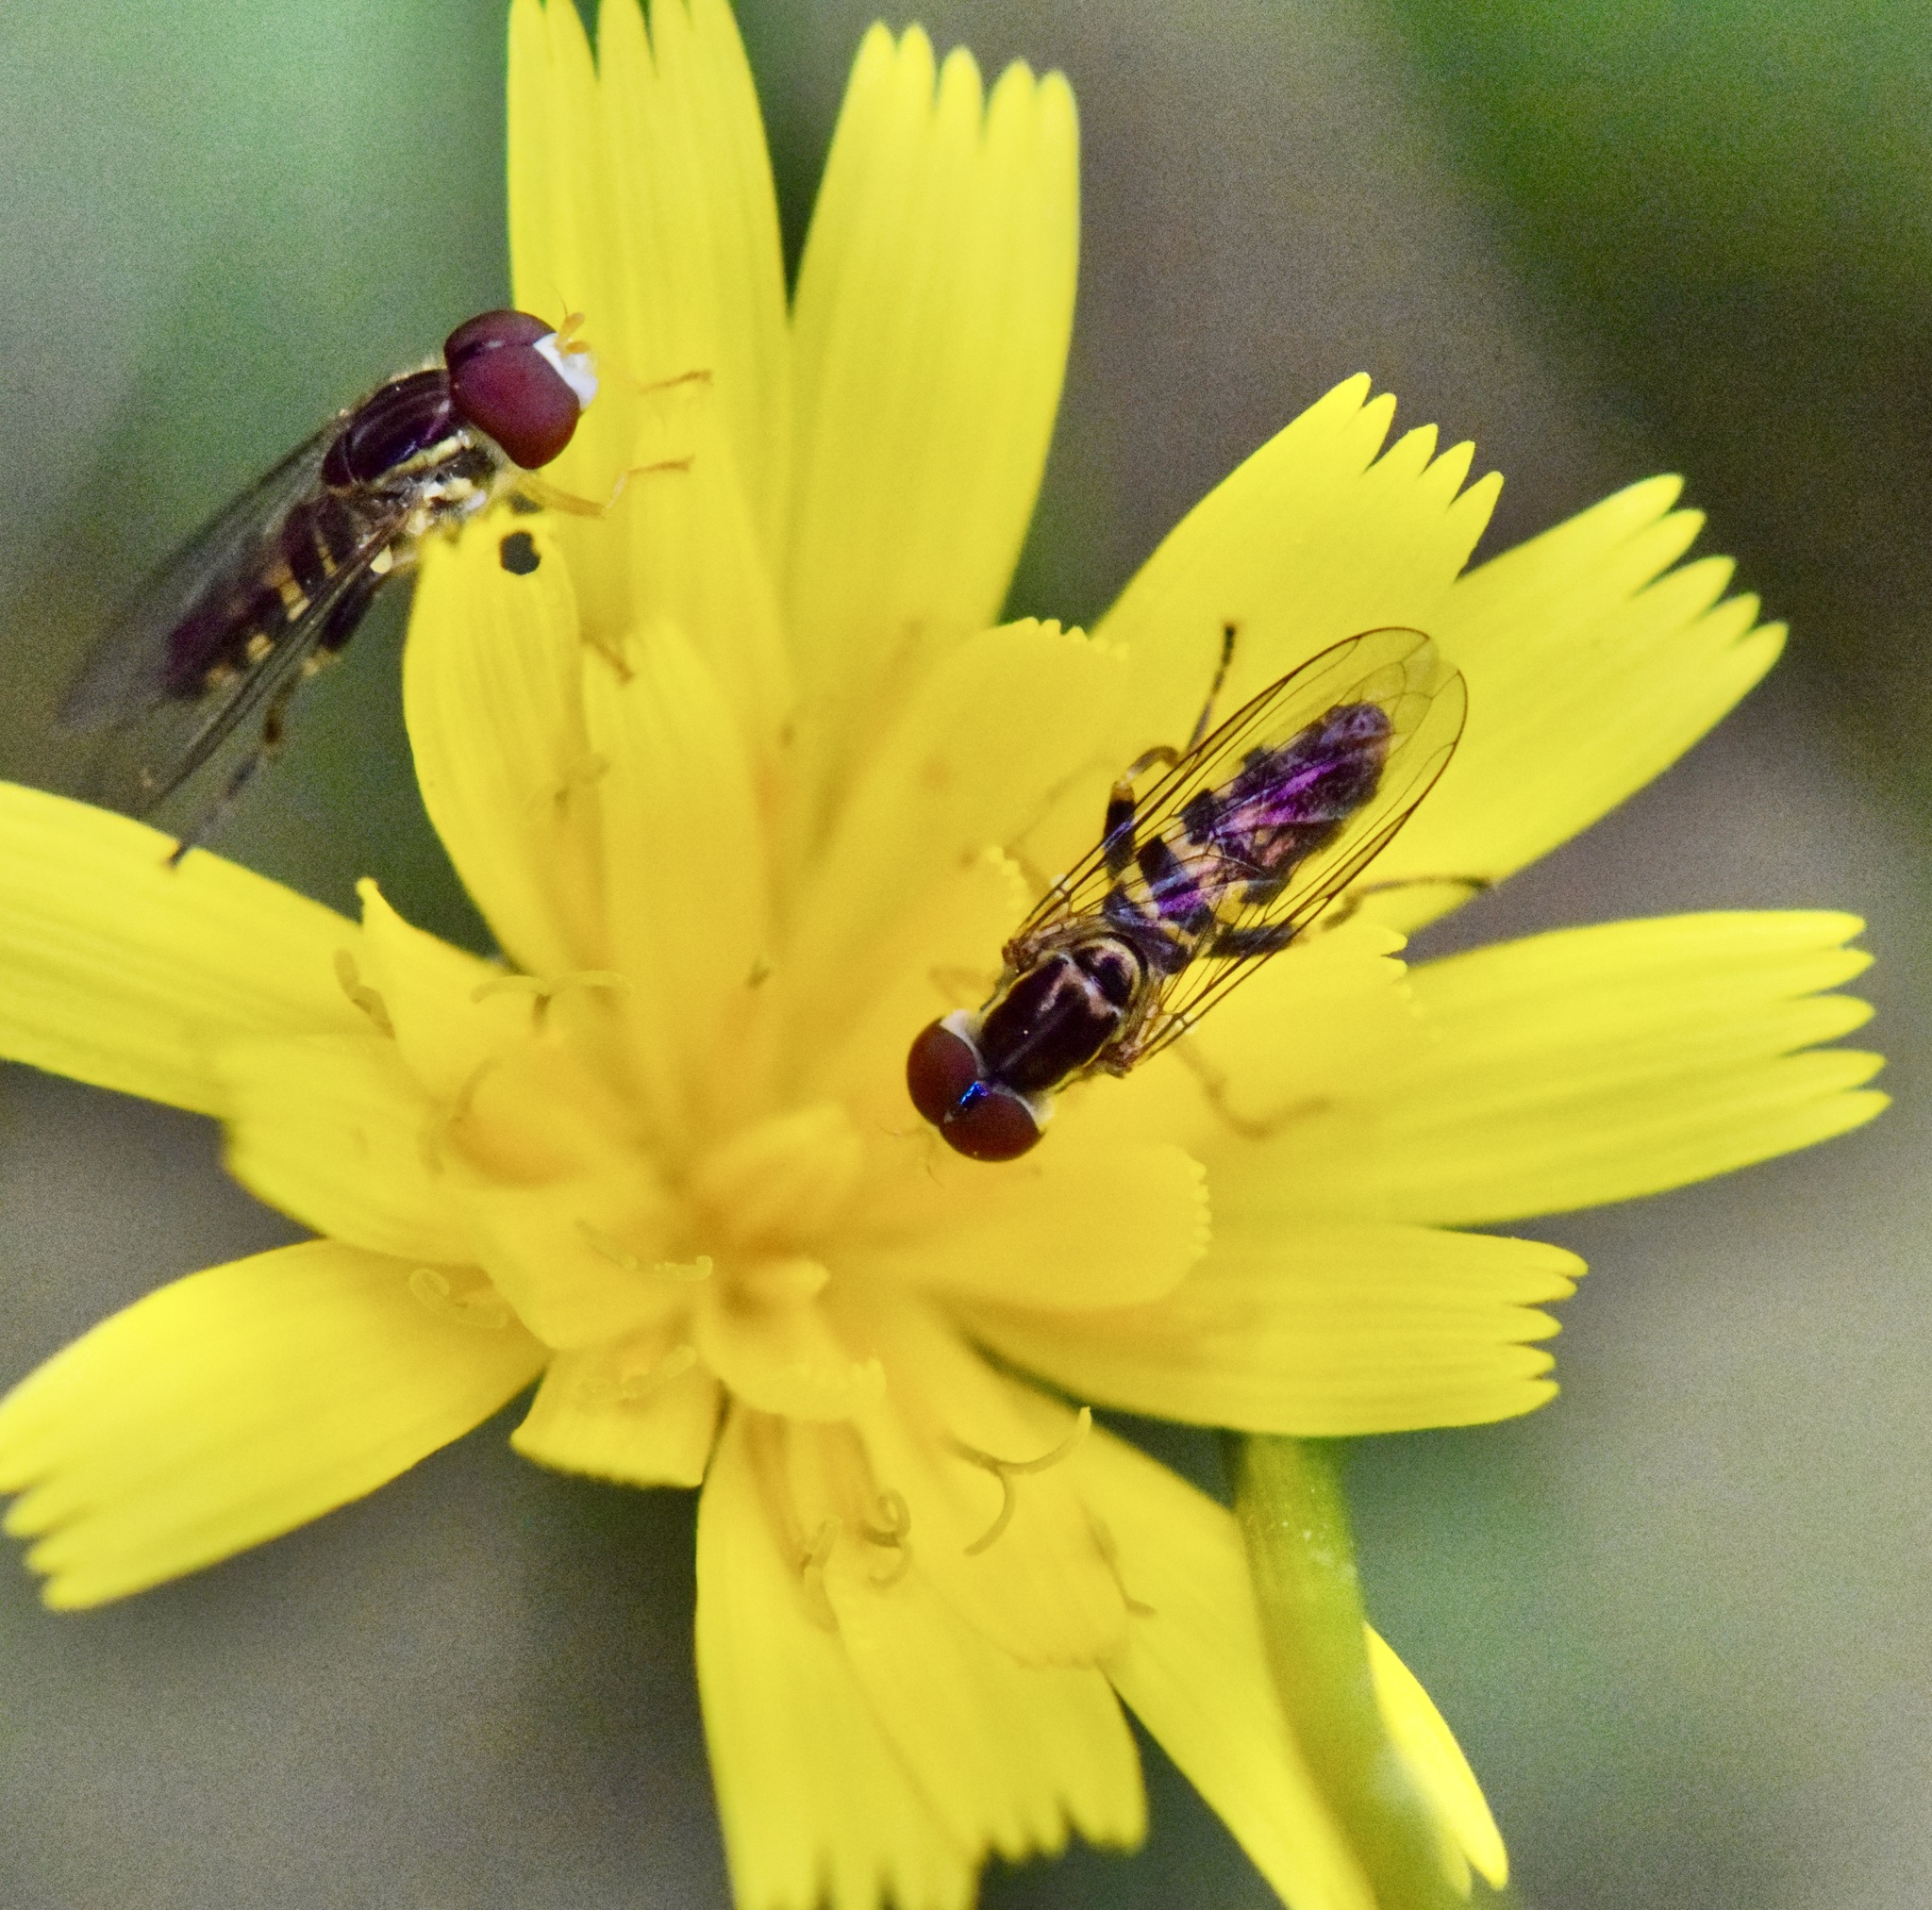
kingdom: Animalia
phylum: Arthropoda
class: Insecta
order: Diptera
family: Syrphidae
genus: Toxomerus
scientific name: Toxomerus geminatus
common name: Eastern calligrapher
